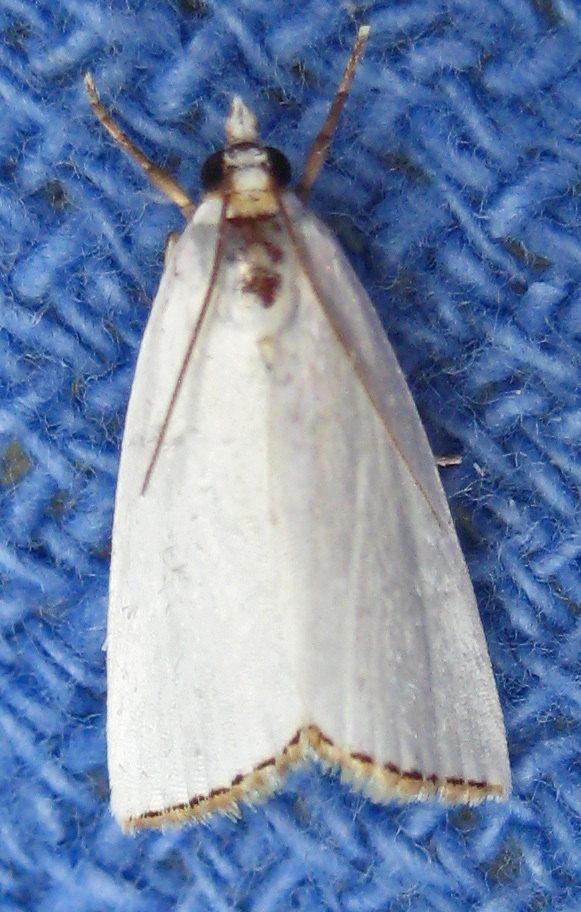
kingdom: Animalia
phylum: Arthropoda
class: Insecta
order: Lepidoptera
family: Crambidae
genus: Argyria
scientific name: Argyria nivalis
